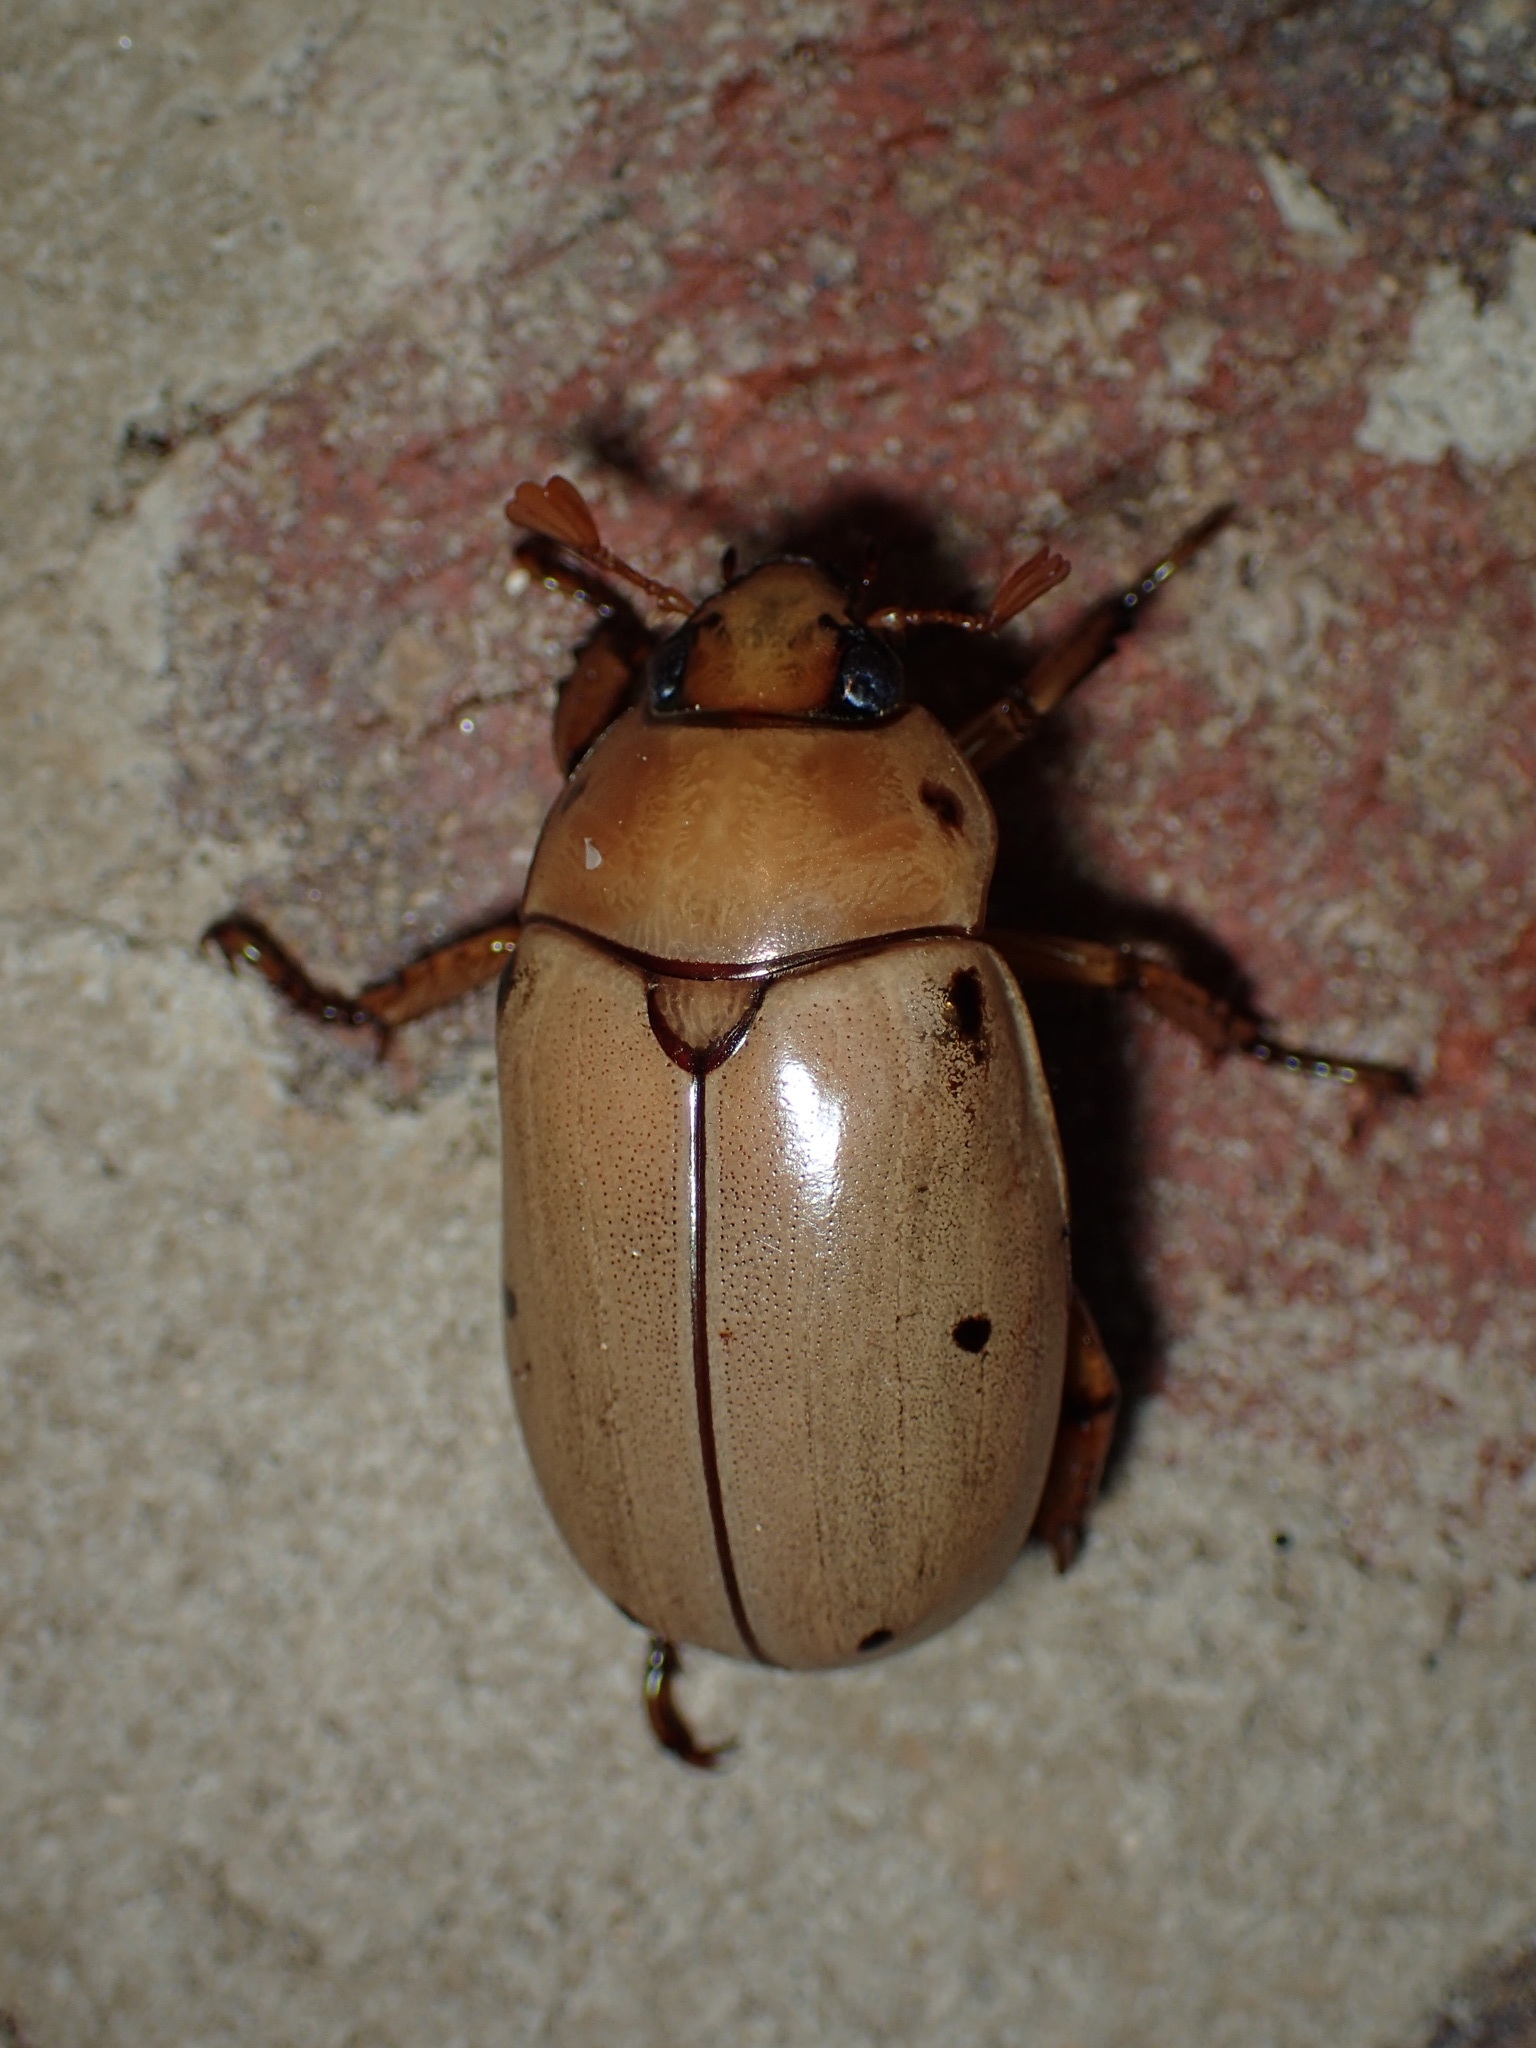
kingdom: Animalia
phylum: Arthropoda
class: Insecta
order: Coleoptera
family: Scarabaeidae
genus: Pelidnota
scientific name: Pelidnota punctata
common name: Grapevine beetle
